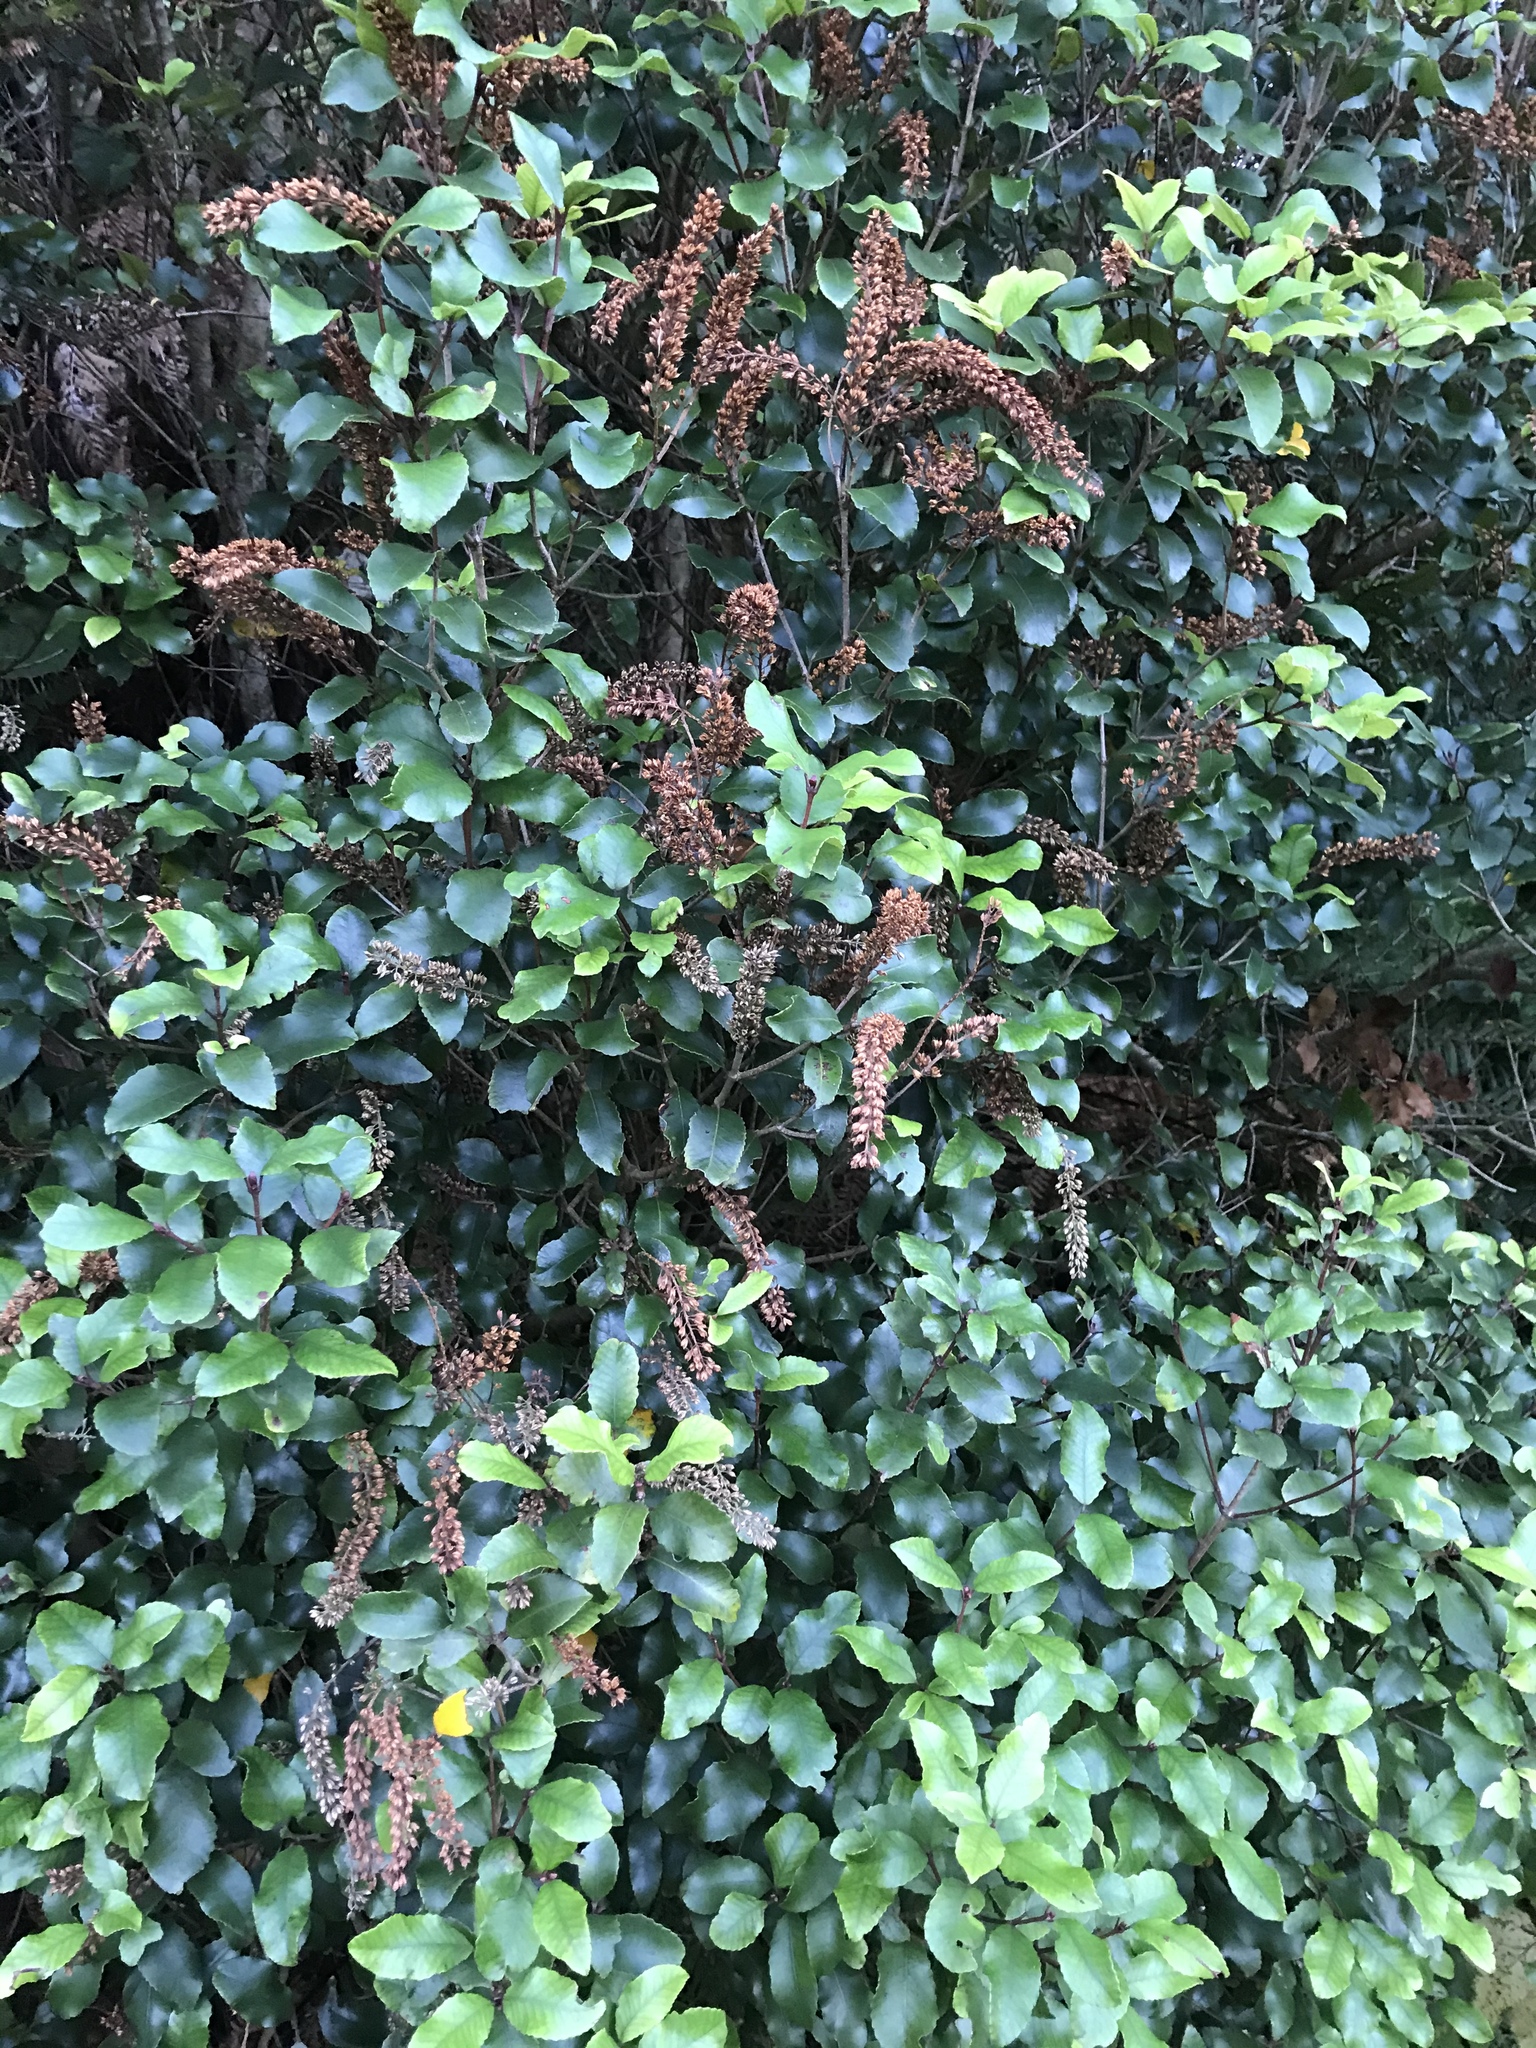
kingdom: Plantae
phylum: Tracheophyta
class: Magnoliopsida
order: Oxalidales
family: Cunoniaceae
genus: Pterophylla
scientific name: Pterophylla racemosa
